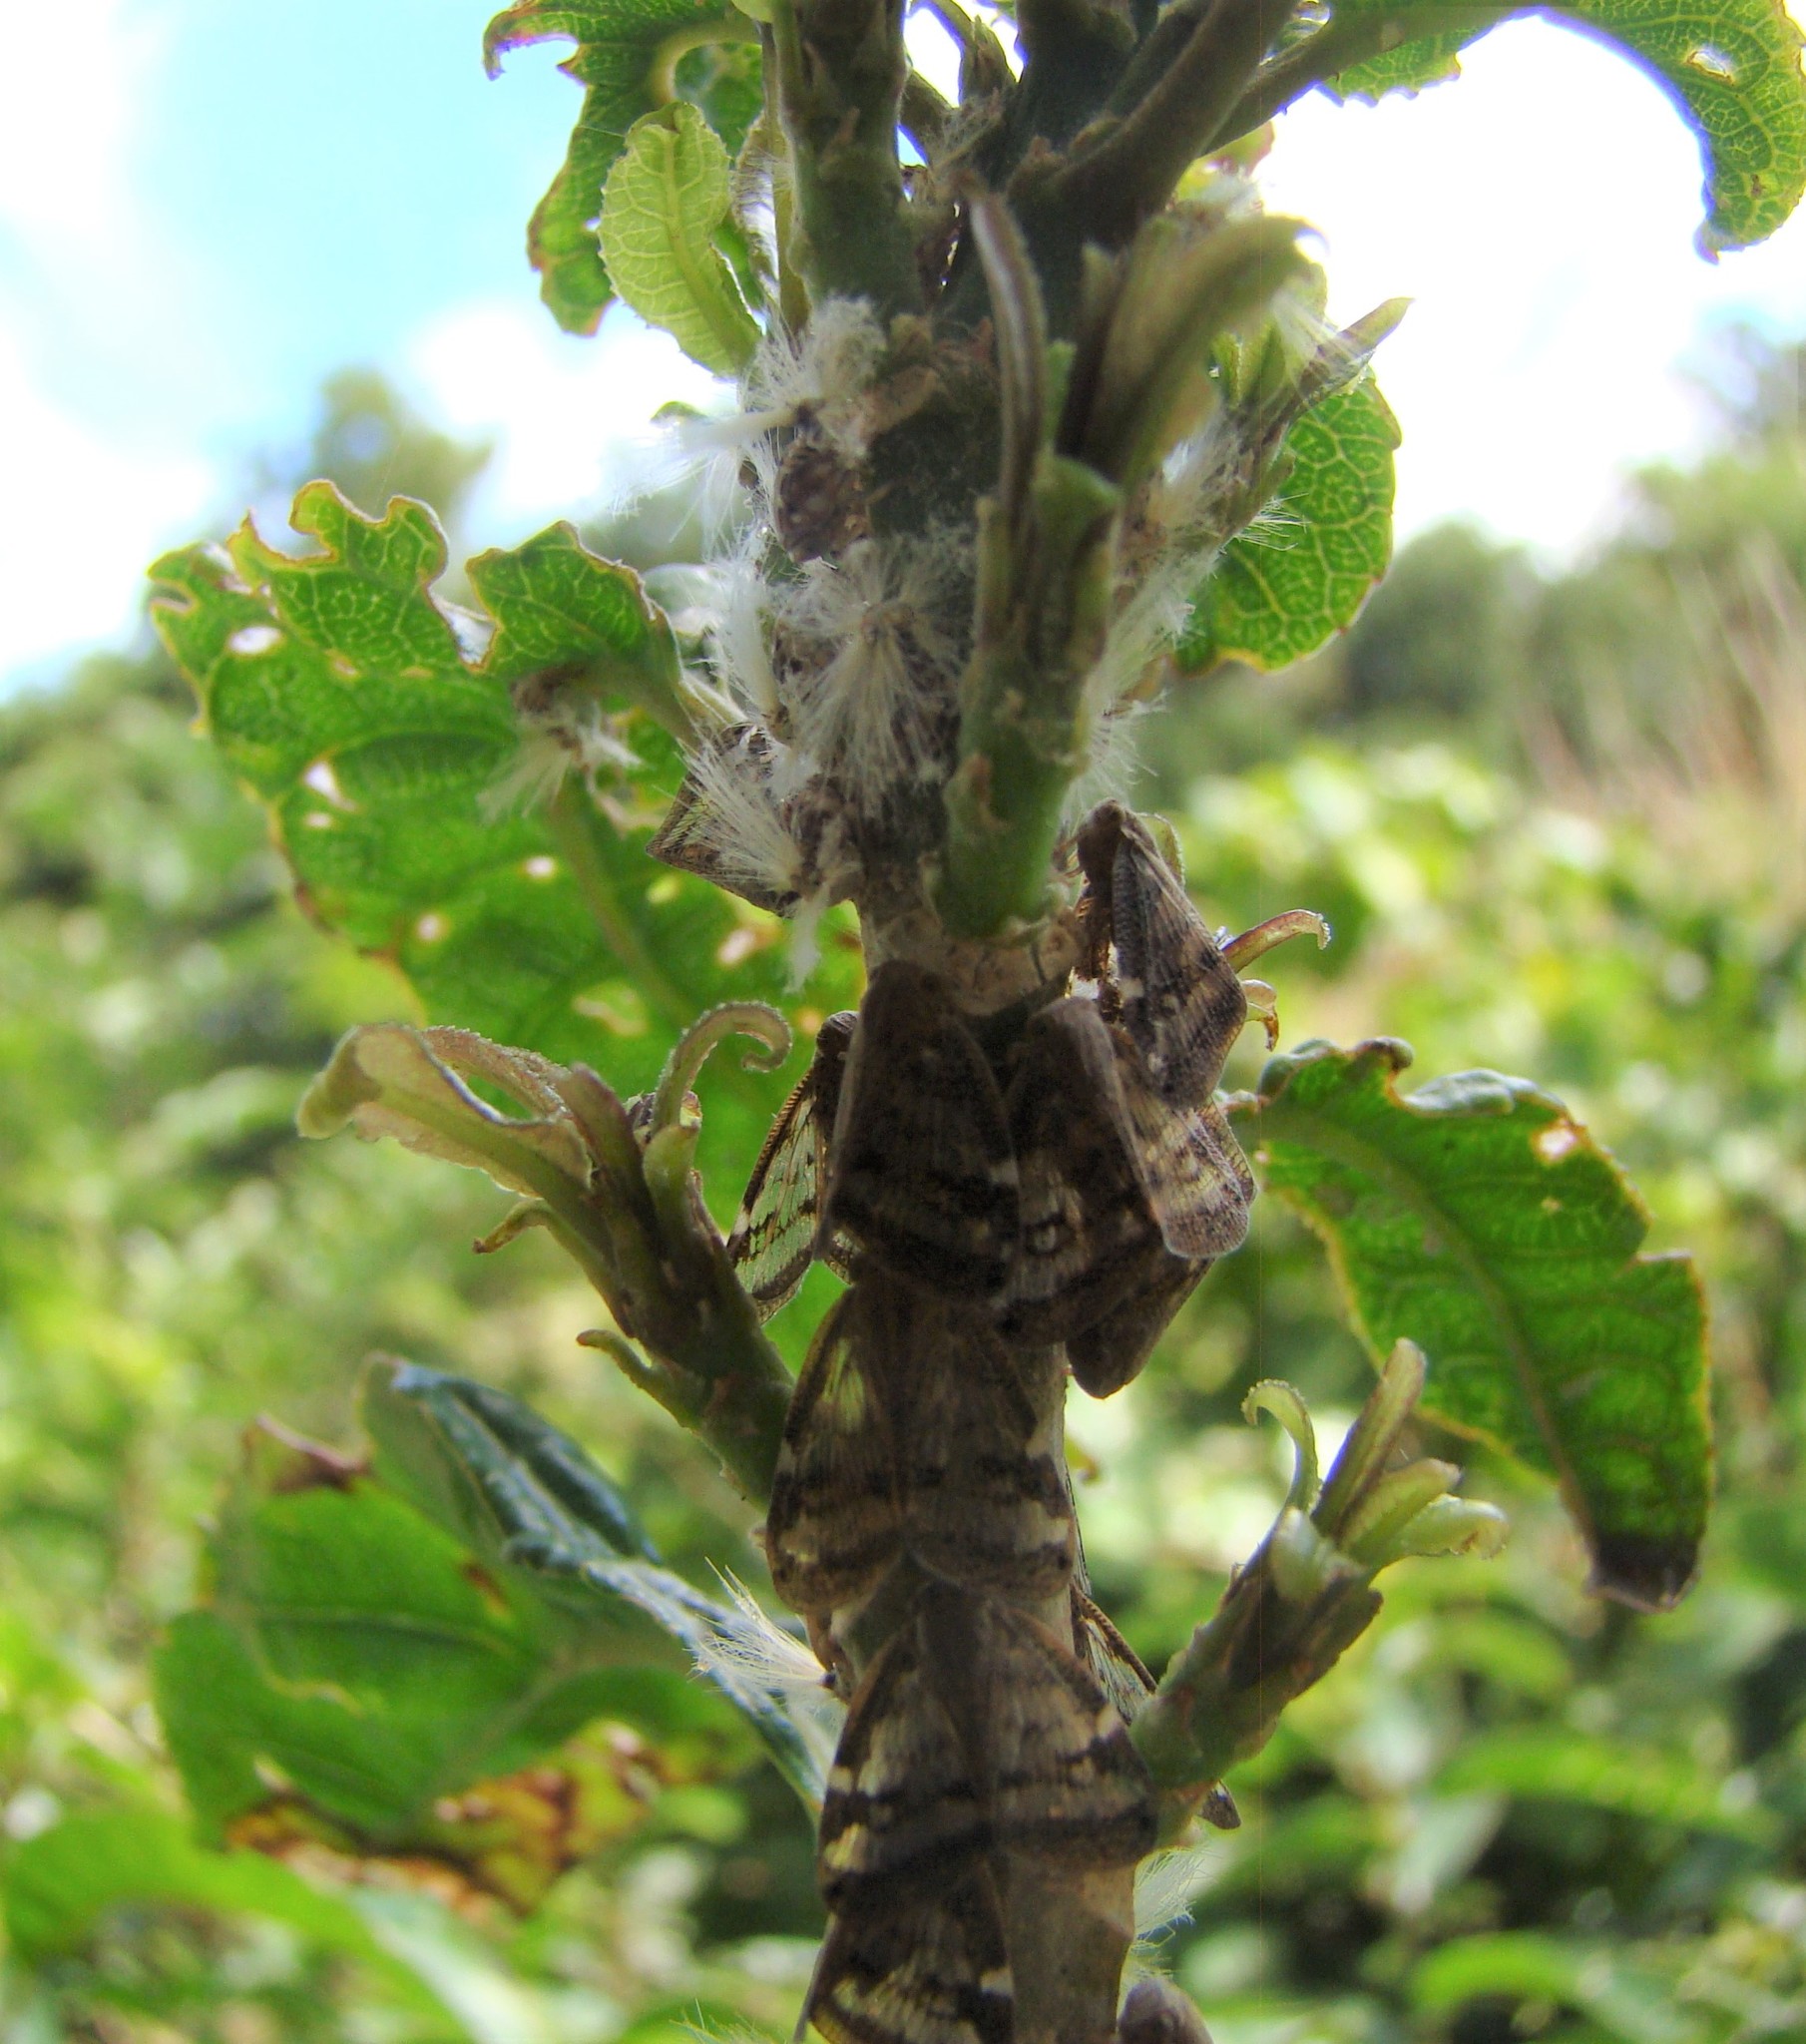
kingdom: Animalia
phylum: Arthropoda
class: Insecta
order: Hemiptera
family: Ricaniidae
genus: Scolypopa
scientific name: Scolypopa australis
